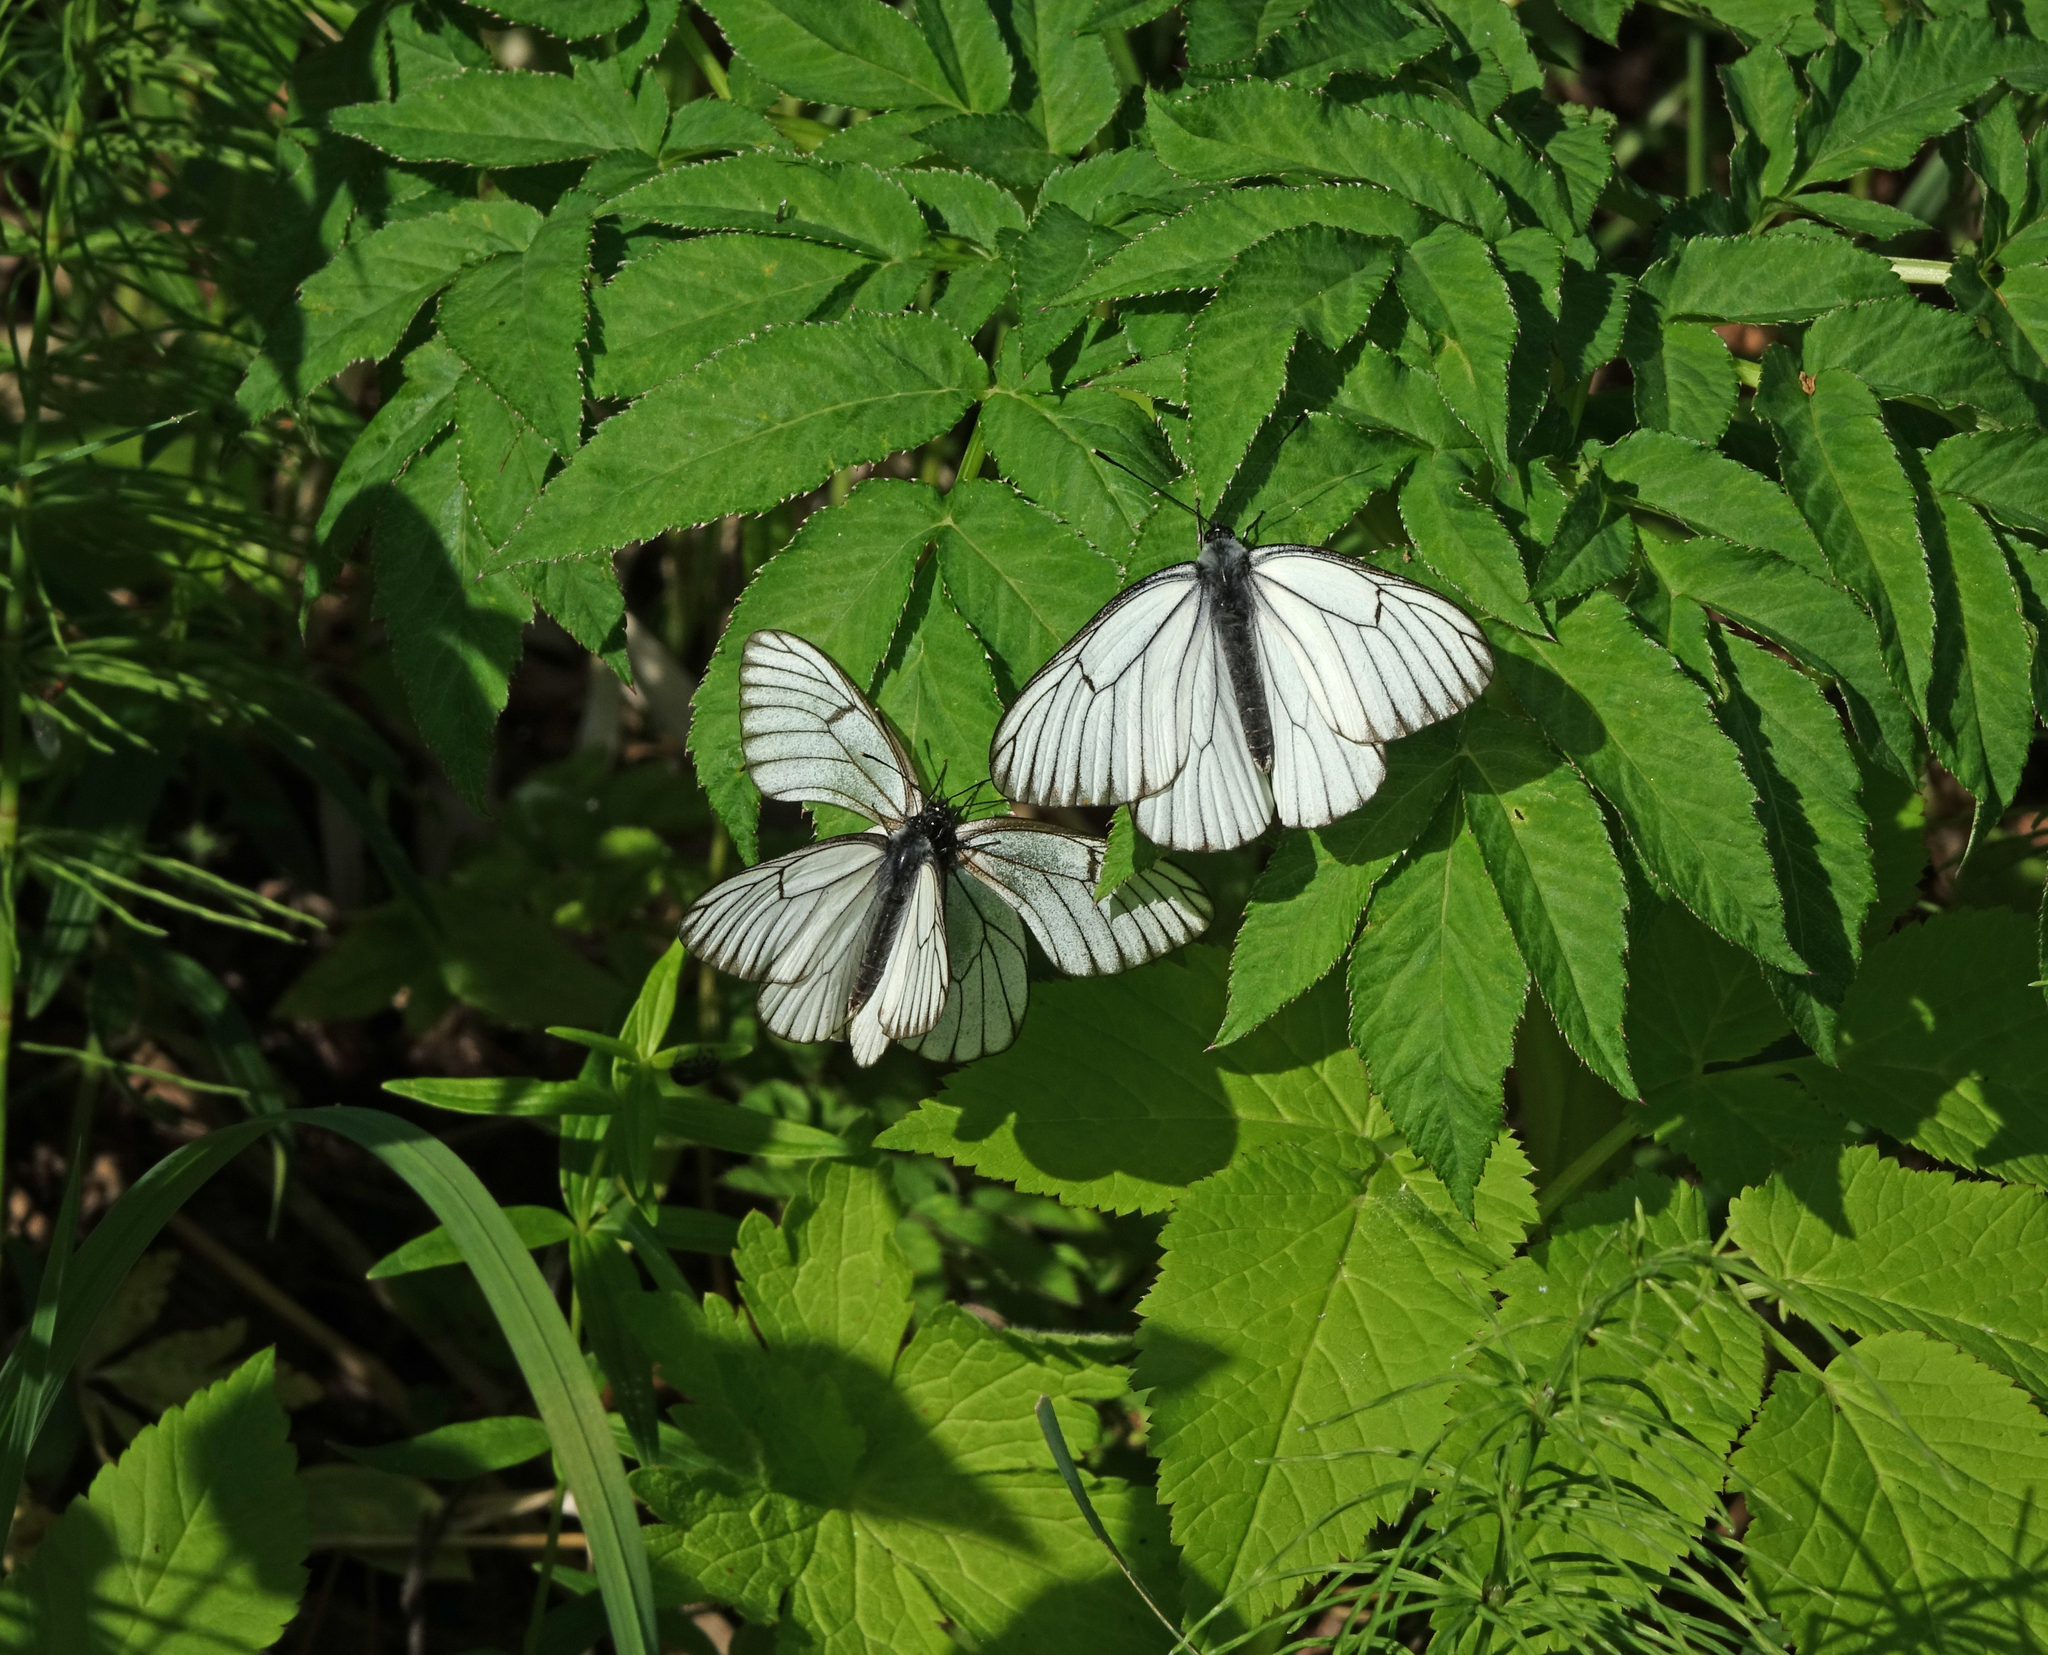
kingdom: Animalia
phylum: Arthropoda
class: Insecta
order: Lepidoptera
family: Pieridae
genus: Aporia
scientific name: Aporia crataegi
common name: Black-veined white
